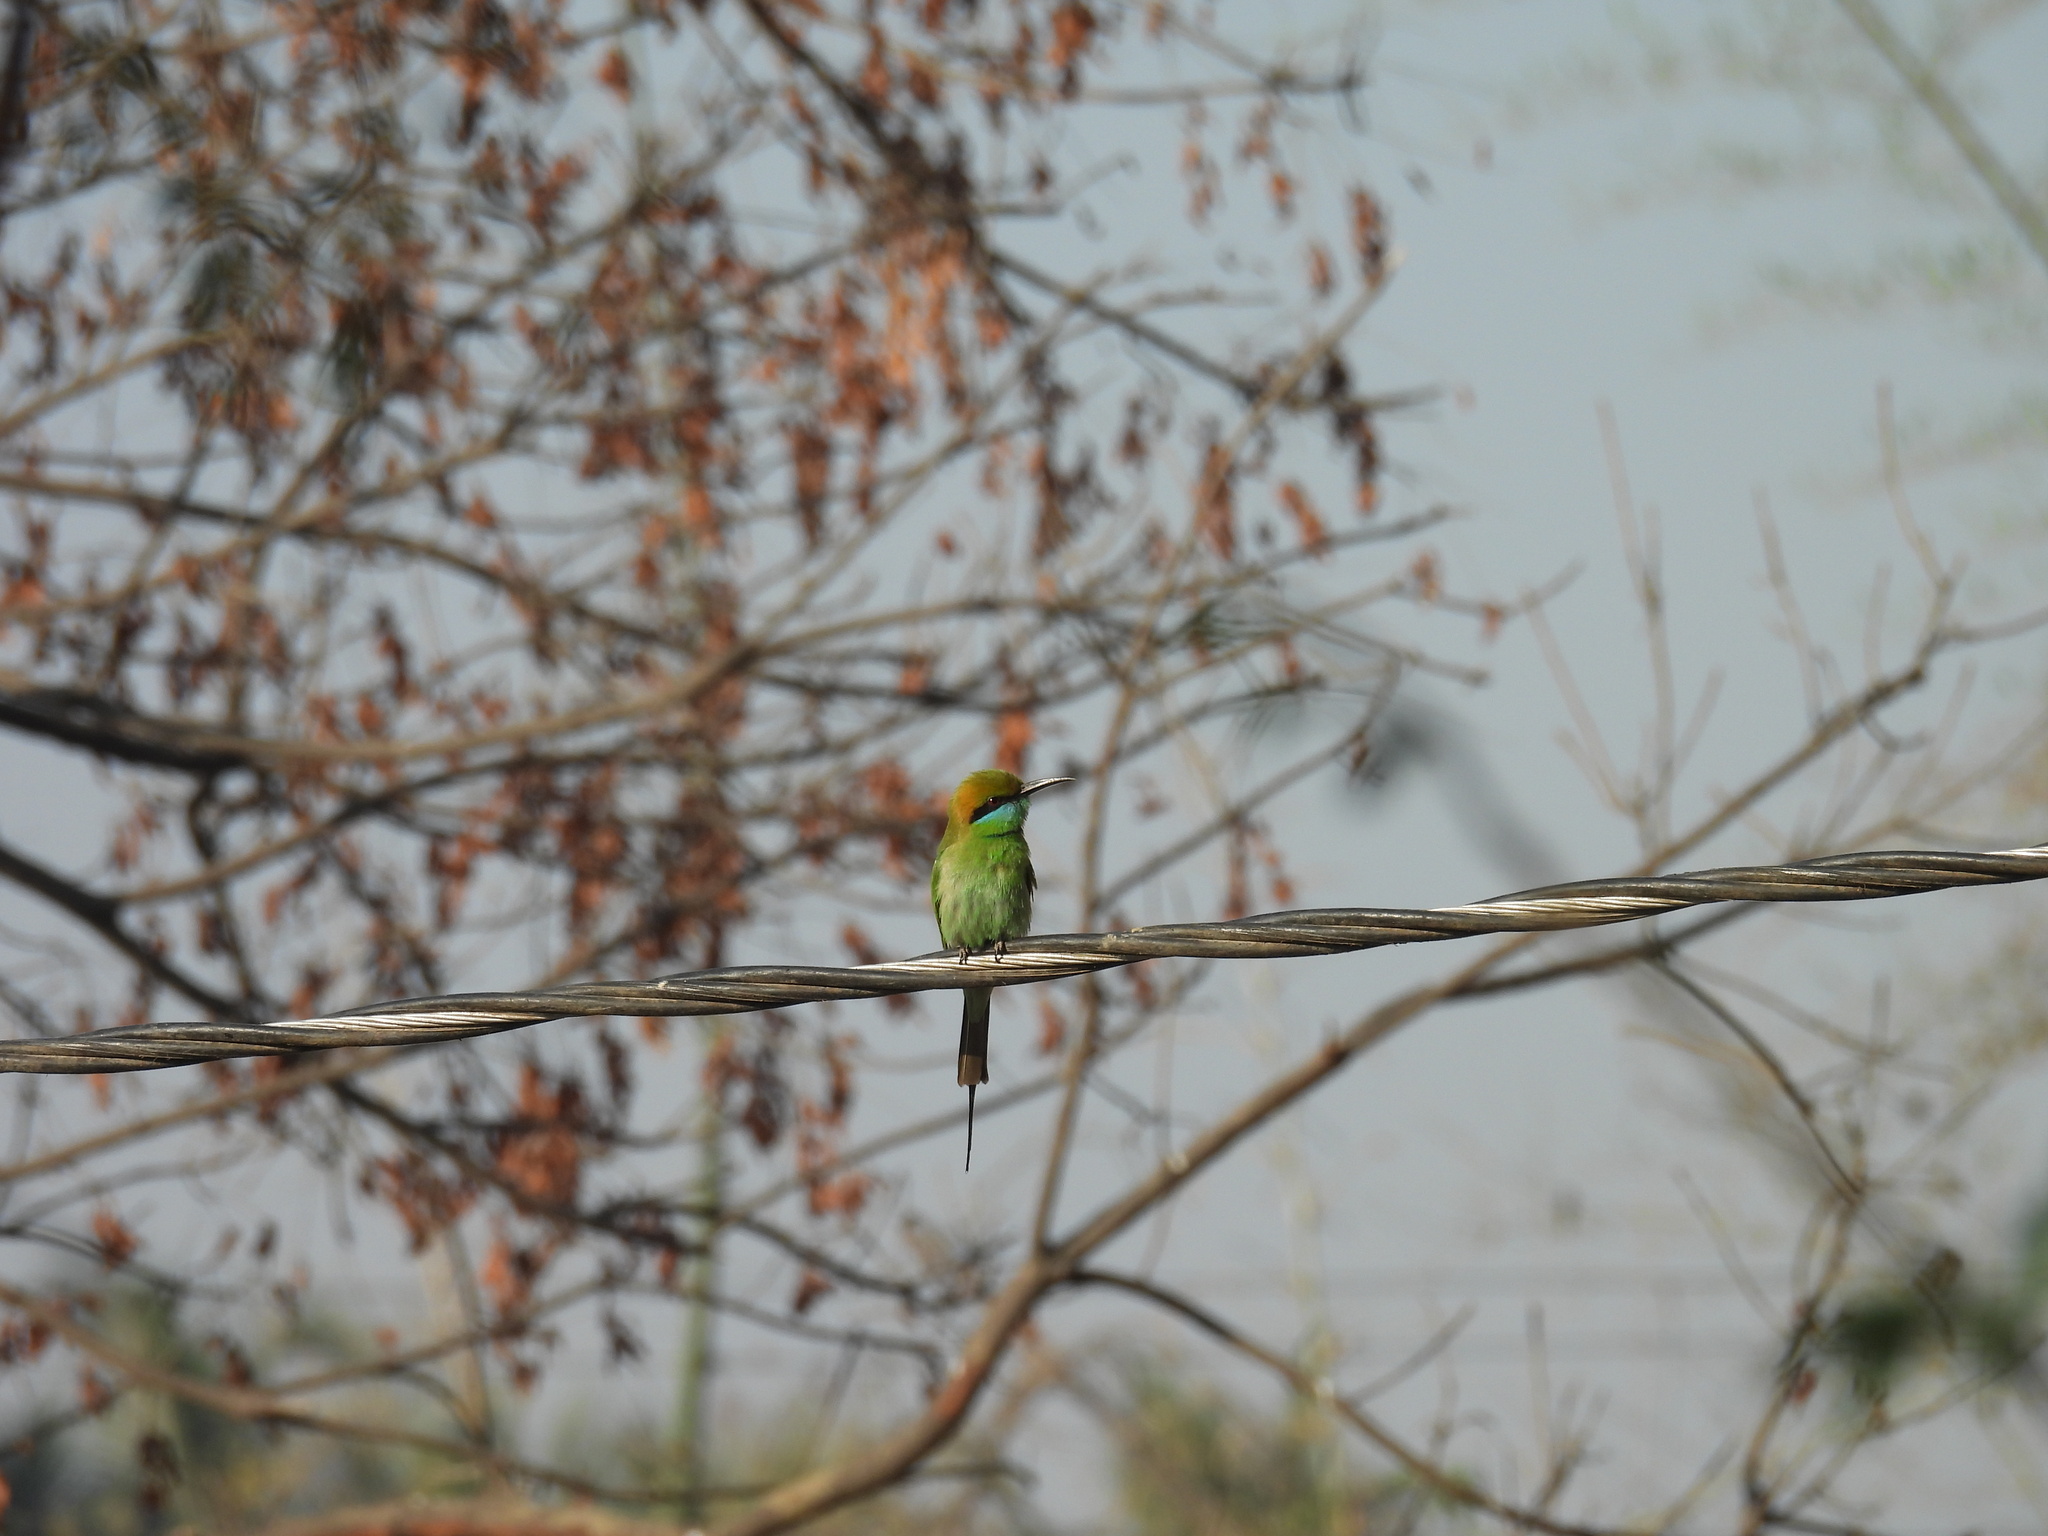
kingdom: Animalia
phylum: Chordata
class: Aves
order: Coraciiformes
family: Meropidae
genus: Merops
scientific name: Merops orientalis
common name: Green bee-eater
